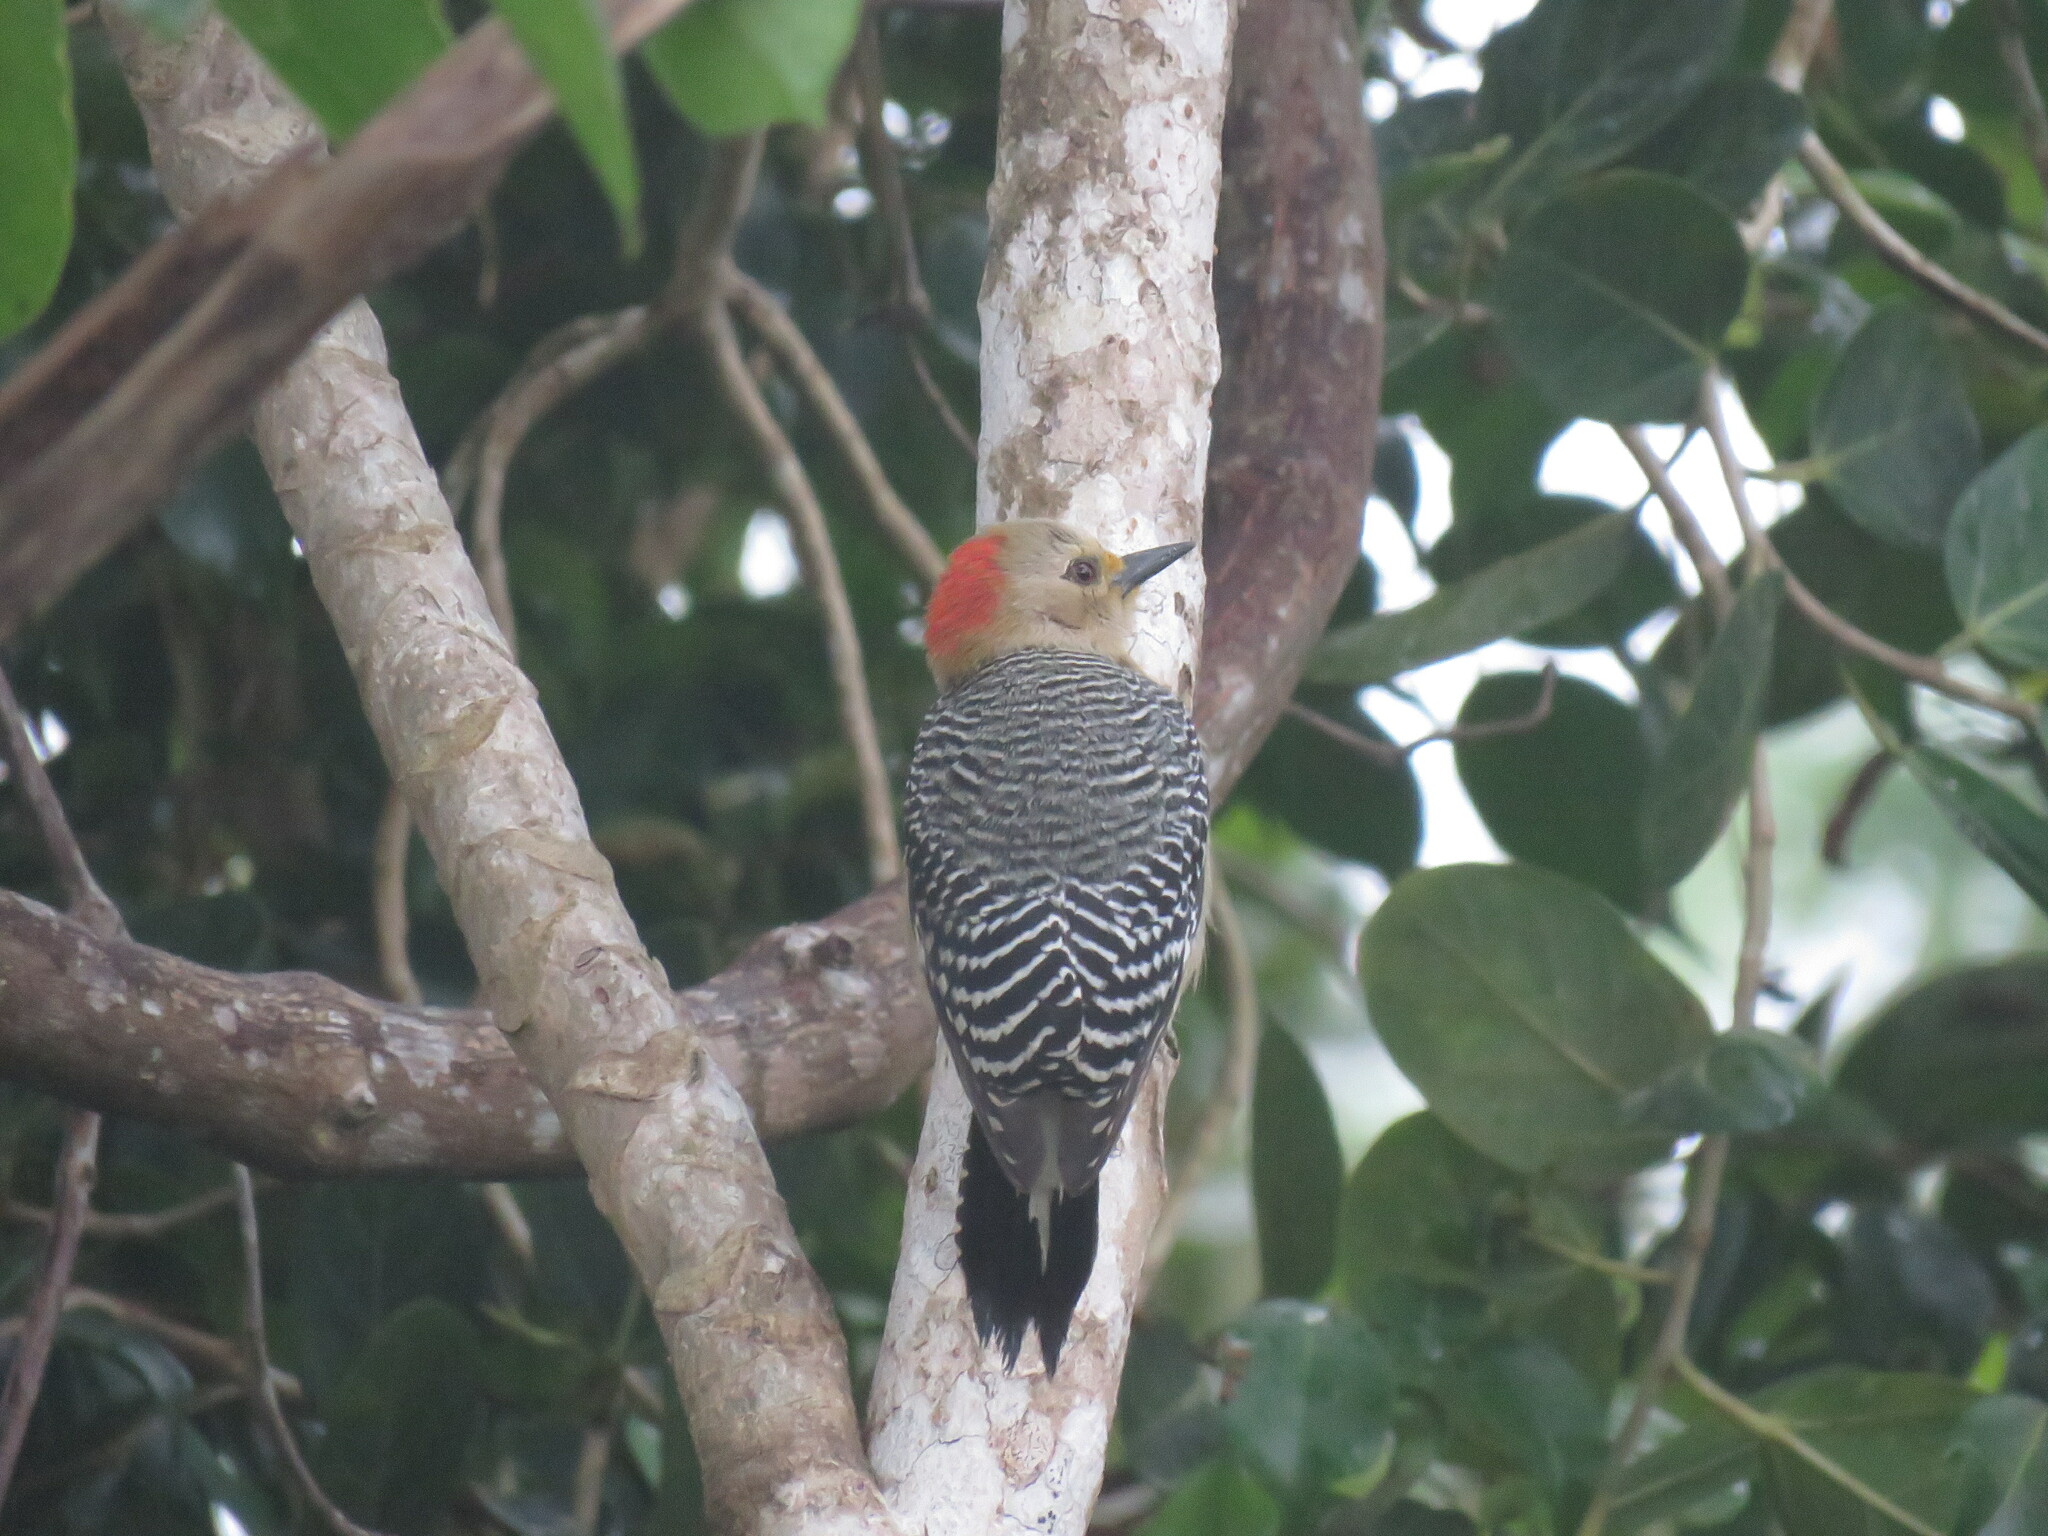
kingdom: Animalia
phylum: Chordata
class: Aves
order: Piciformes
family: Picidae
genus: Melanerpes
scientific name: Melanerpes pygmaeus
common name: Yucatan woodpecker
